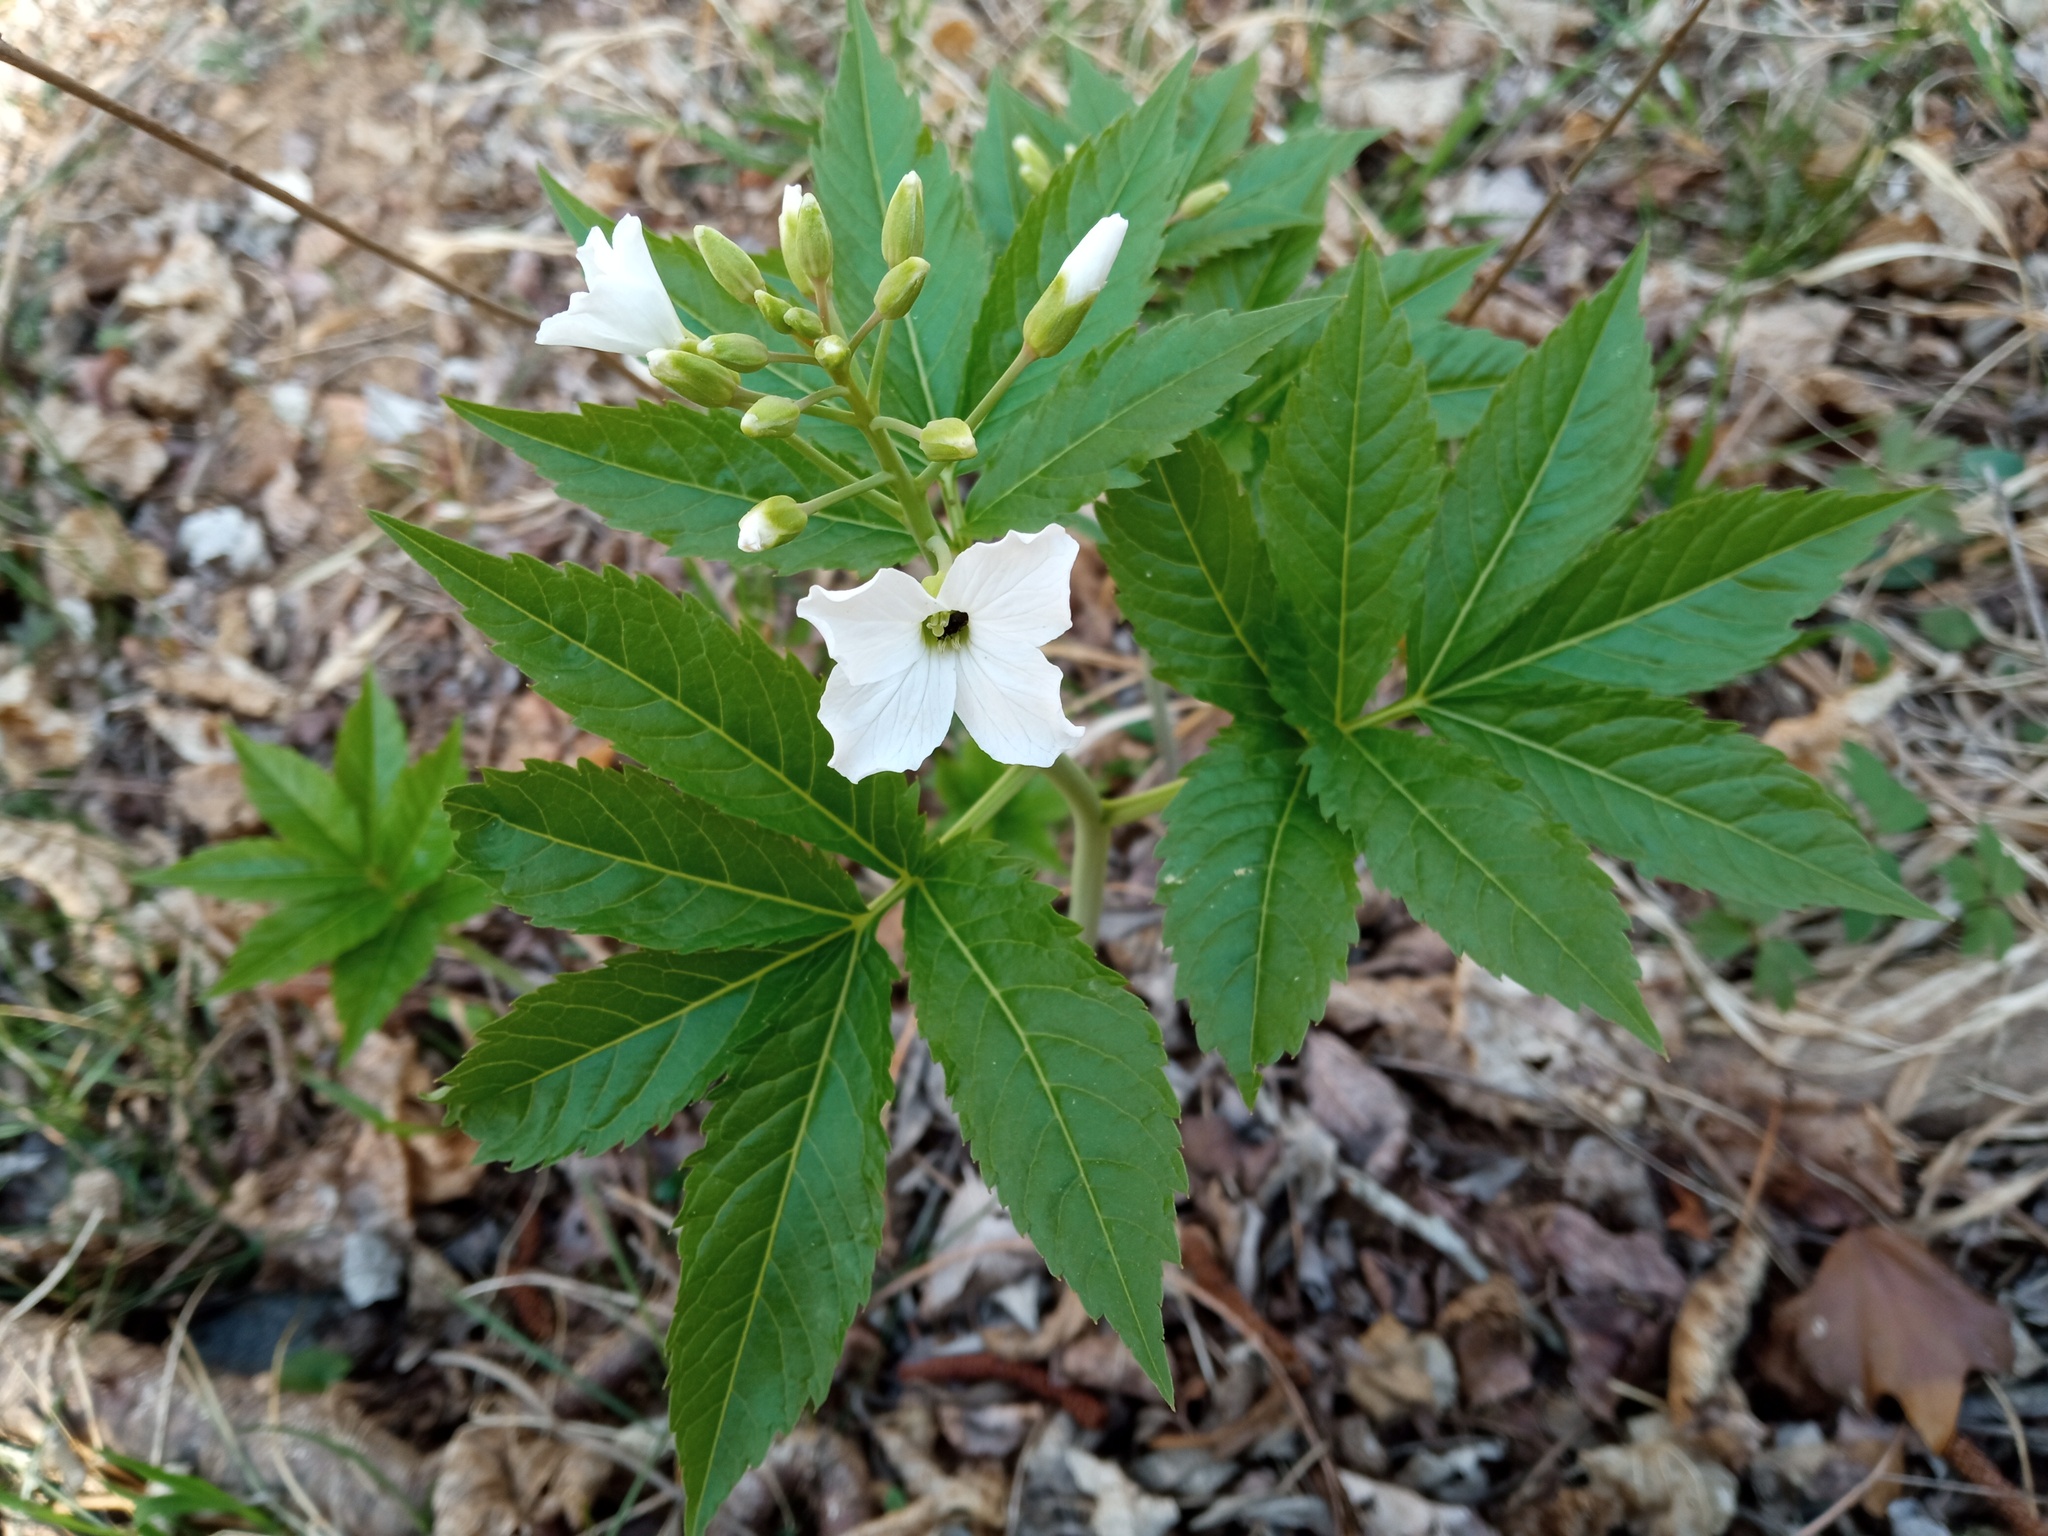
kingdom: Plantae
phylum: Tracheophyta
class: Magnoliopsida
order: Brassicales
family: Brassicaceae
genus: Cardamine
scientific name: Cardamine heptaphylla
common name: Pinnate coralroot
